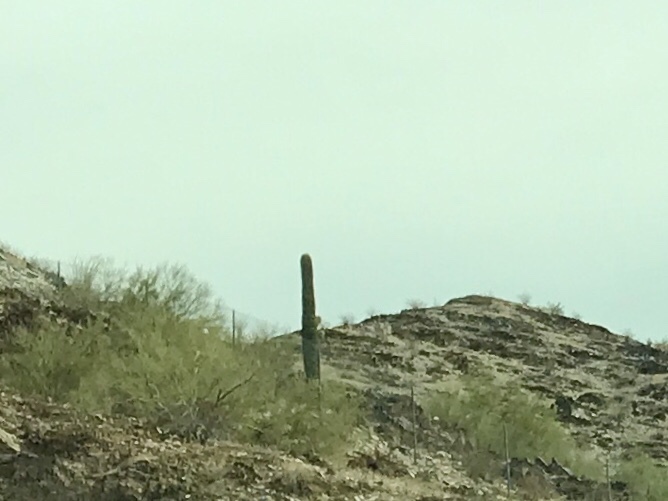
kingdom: Plantae
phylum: Tracheophyta
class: Magnoliopsida
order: Caryophyllales
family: Cactaceae
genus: Carnegiea
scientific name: Carnegiea gigantea
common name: Saguaro
